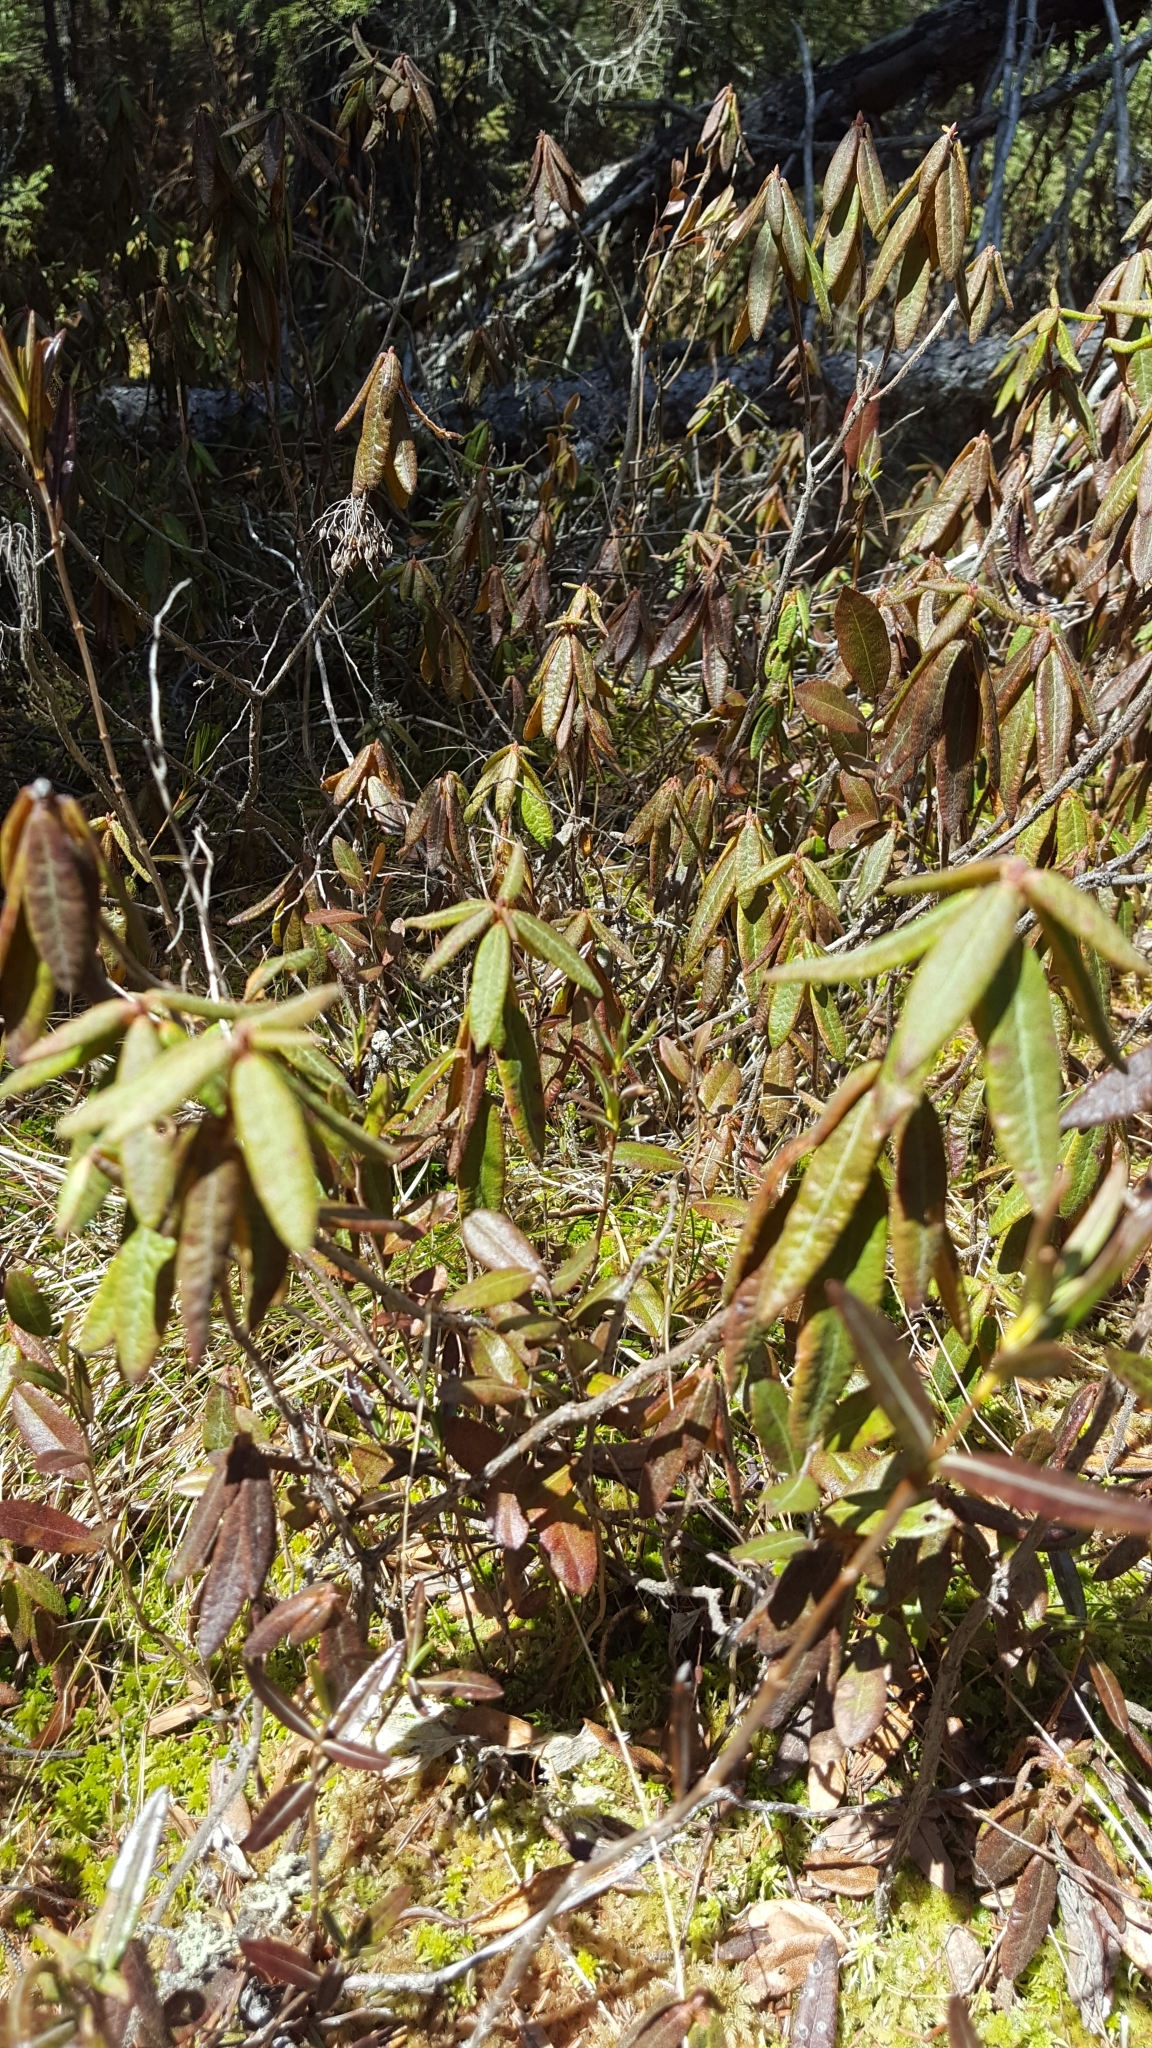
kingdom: Plantae
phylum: Tracheophyta
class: Magnoliopsida
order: Ericales
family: Ericaceae
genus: Rhododendron
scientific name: Rhododendron groenlandicum
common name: Bog labrador tea
